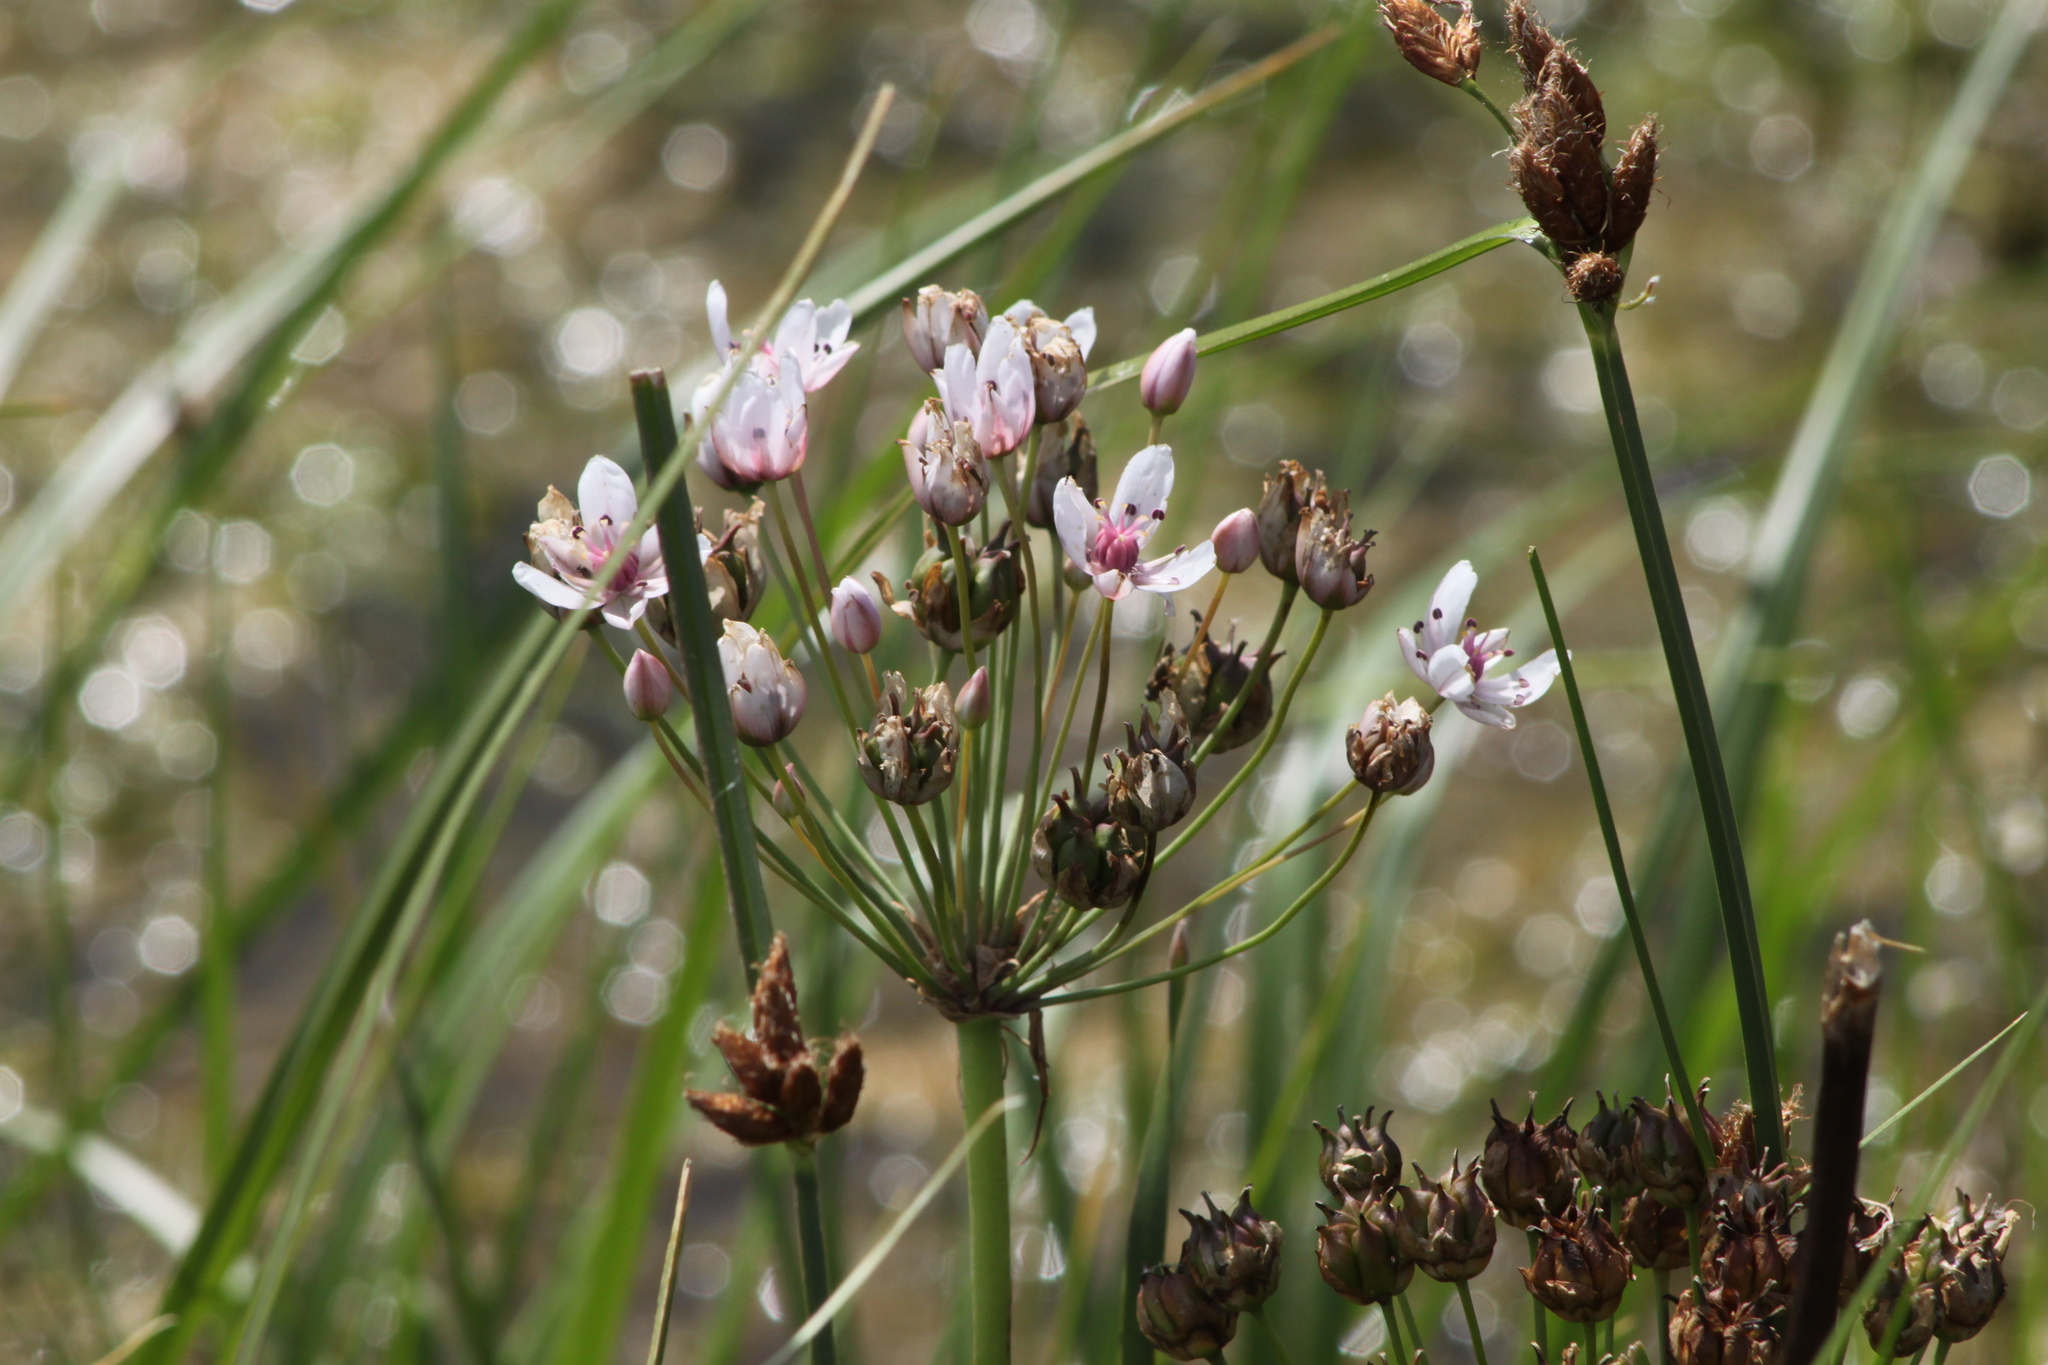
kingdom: Plantae
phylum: Tracheophyta
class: Liliopsida
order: Alismatales
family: Butomaceae
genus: Butomus
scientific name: Butomus umbellatus
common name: Flowering-rush
